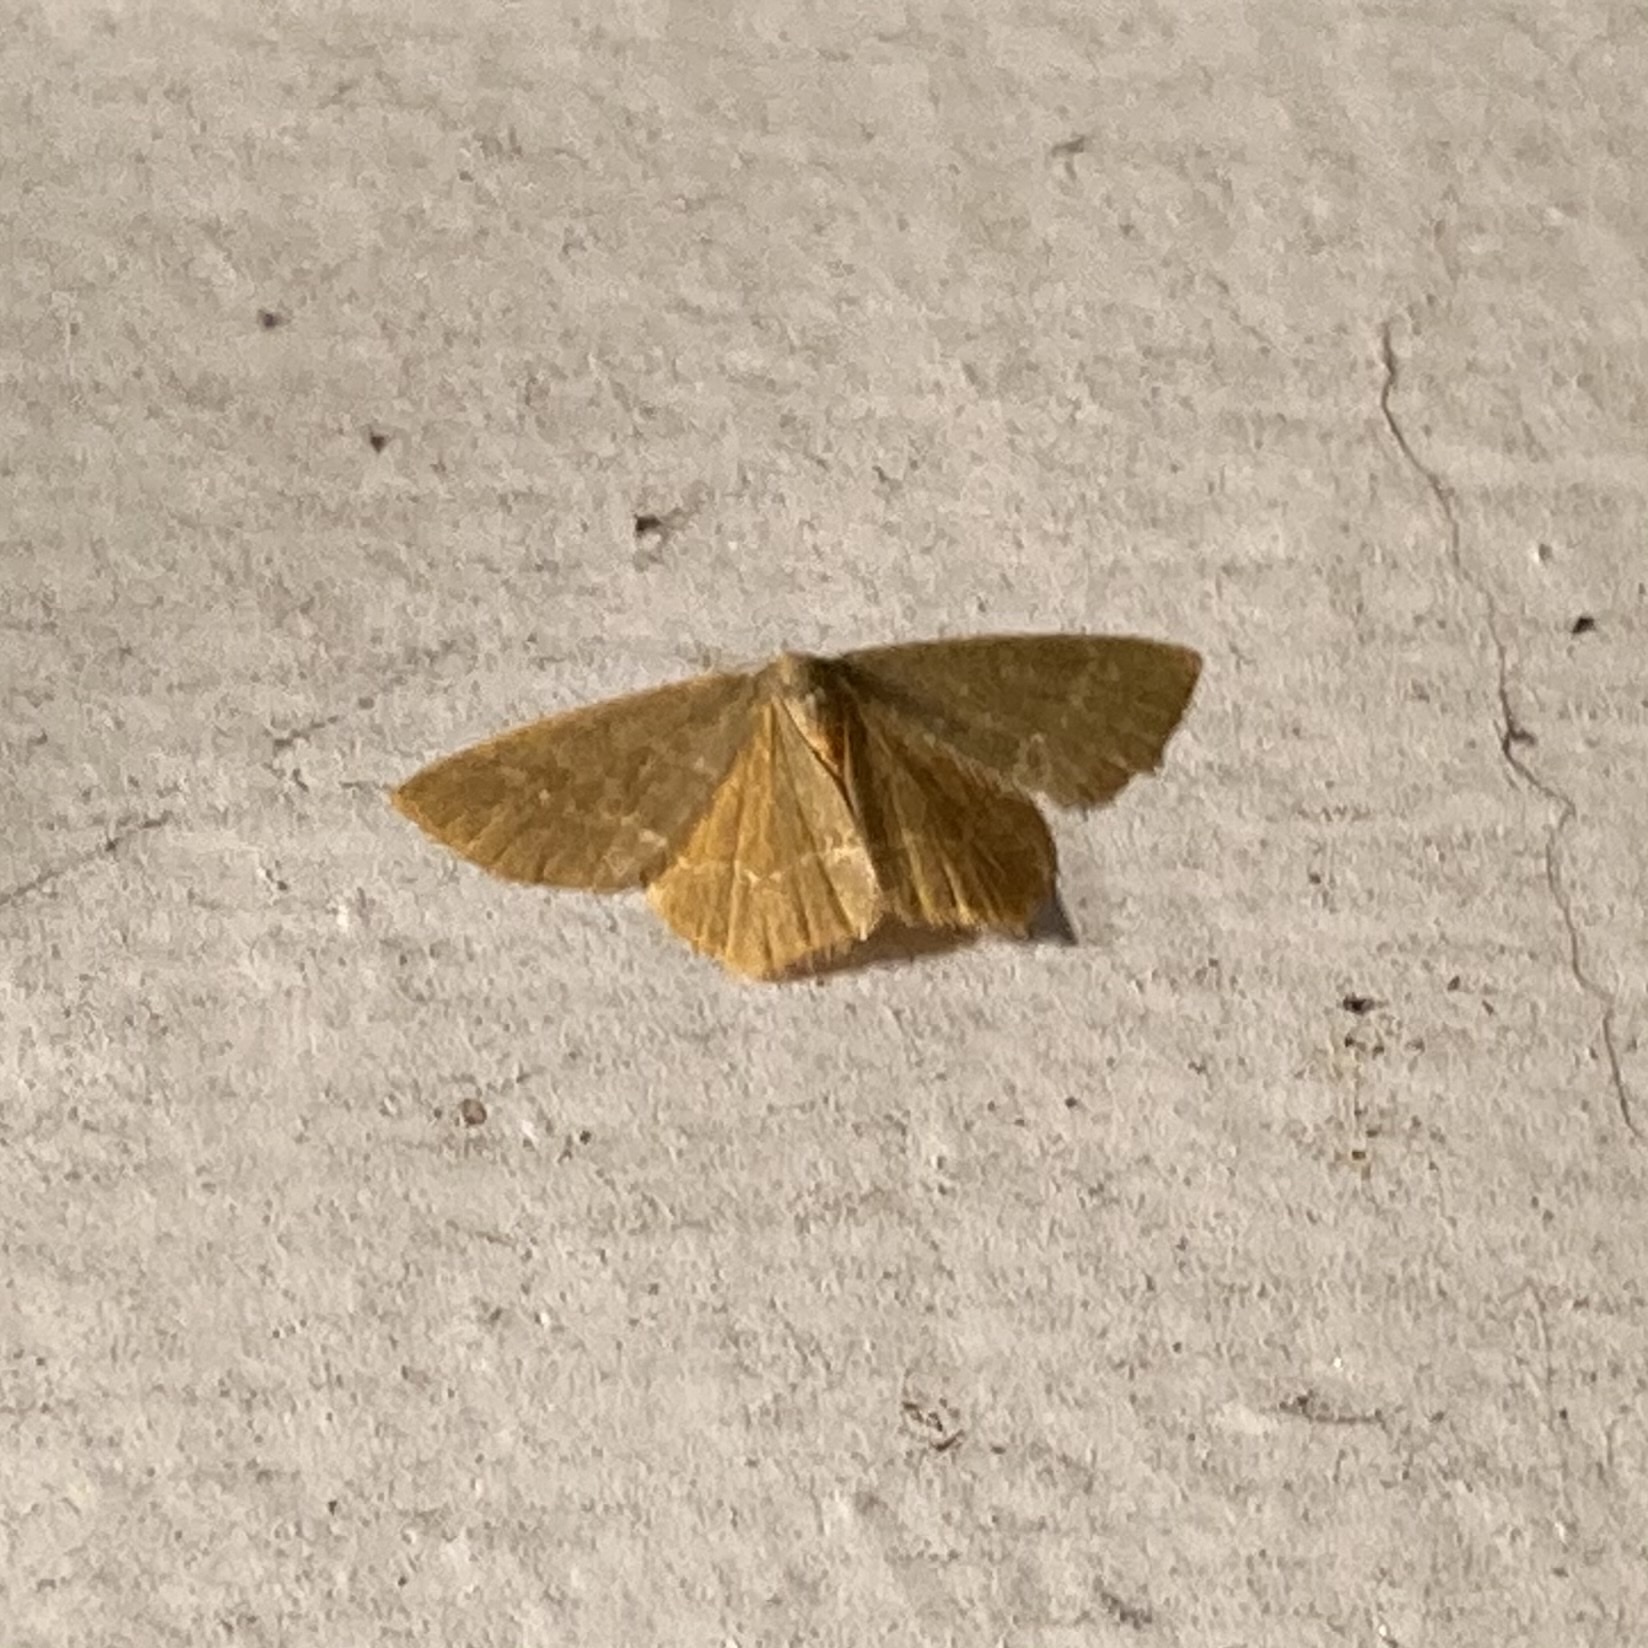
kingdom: Animalia
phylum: Arthropoda
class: Insecta
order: Lepidoptera
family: Geometridae
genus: Thalera
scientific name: Thalera pistasciaria
